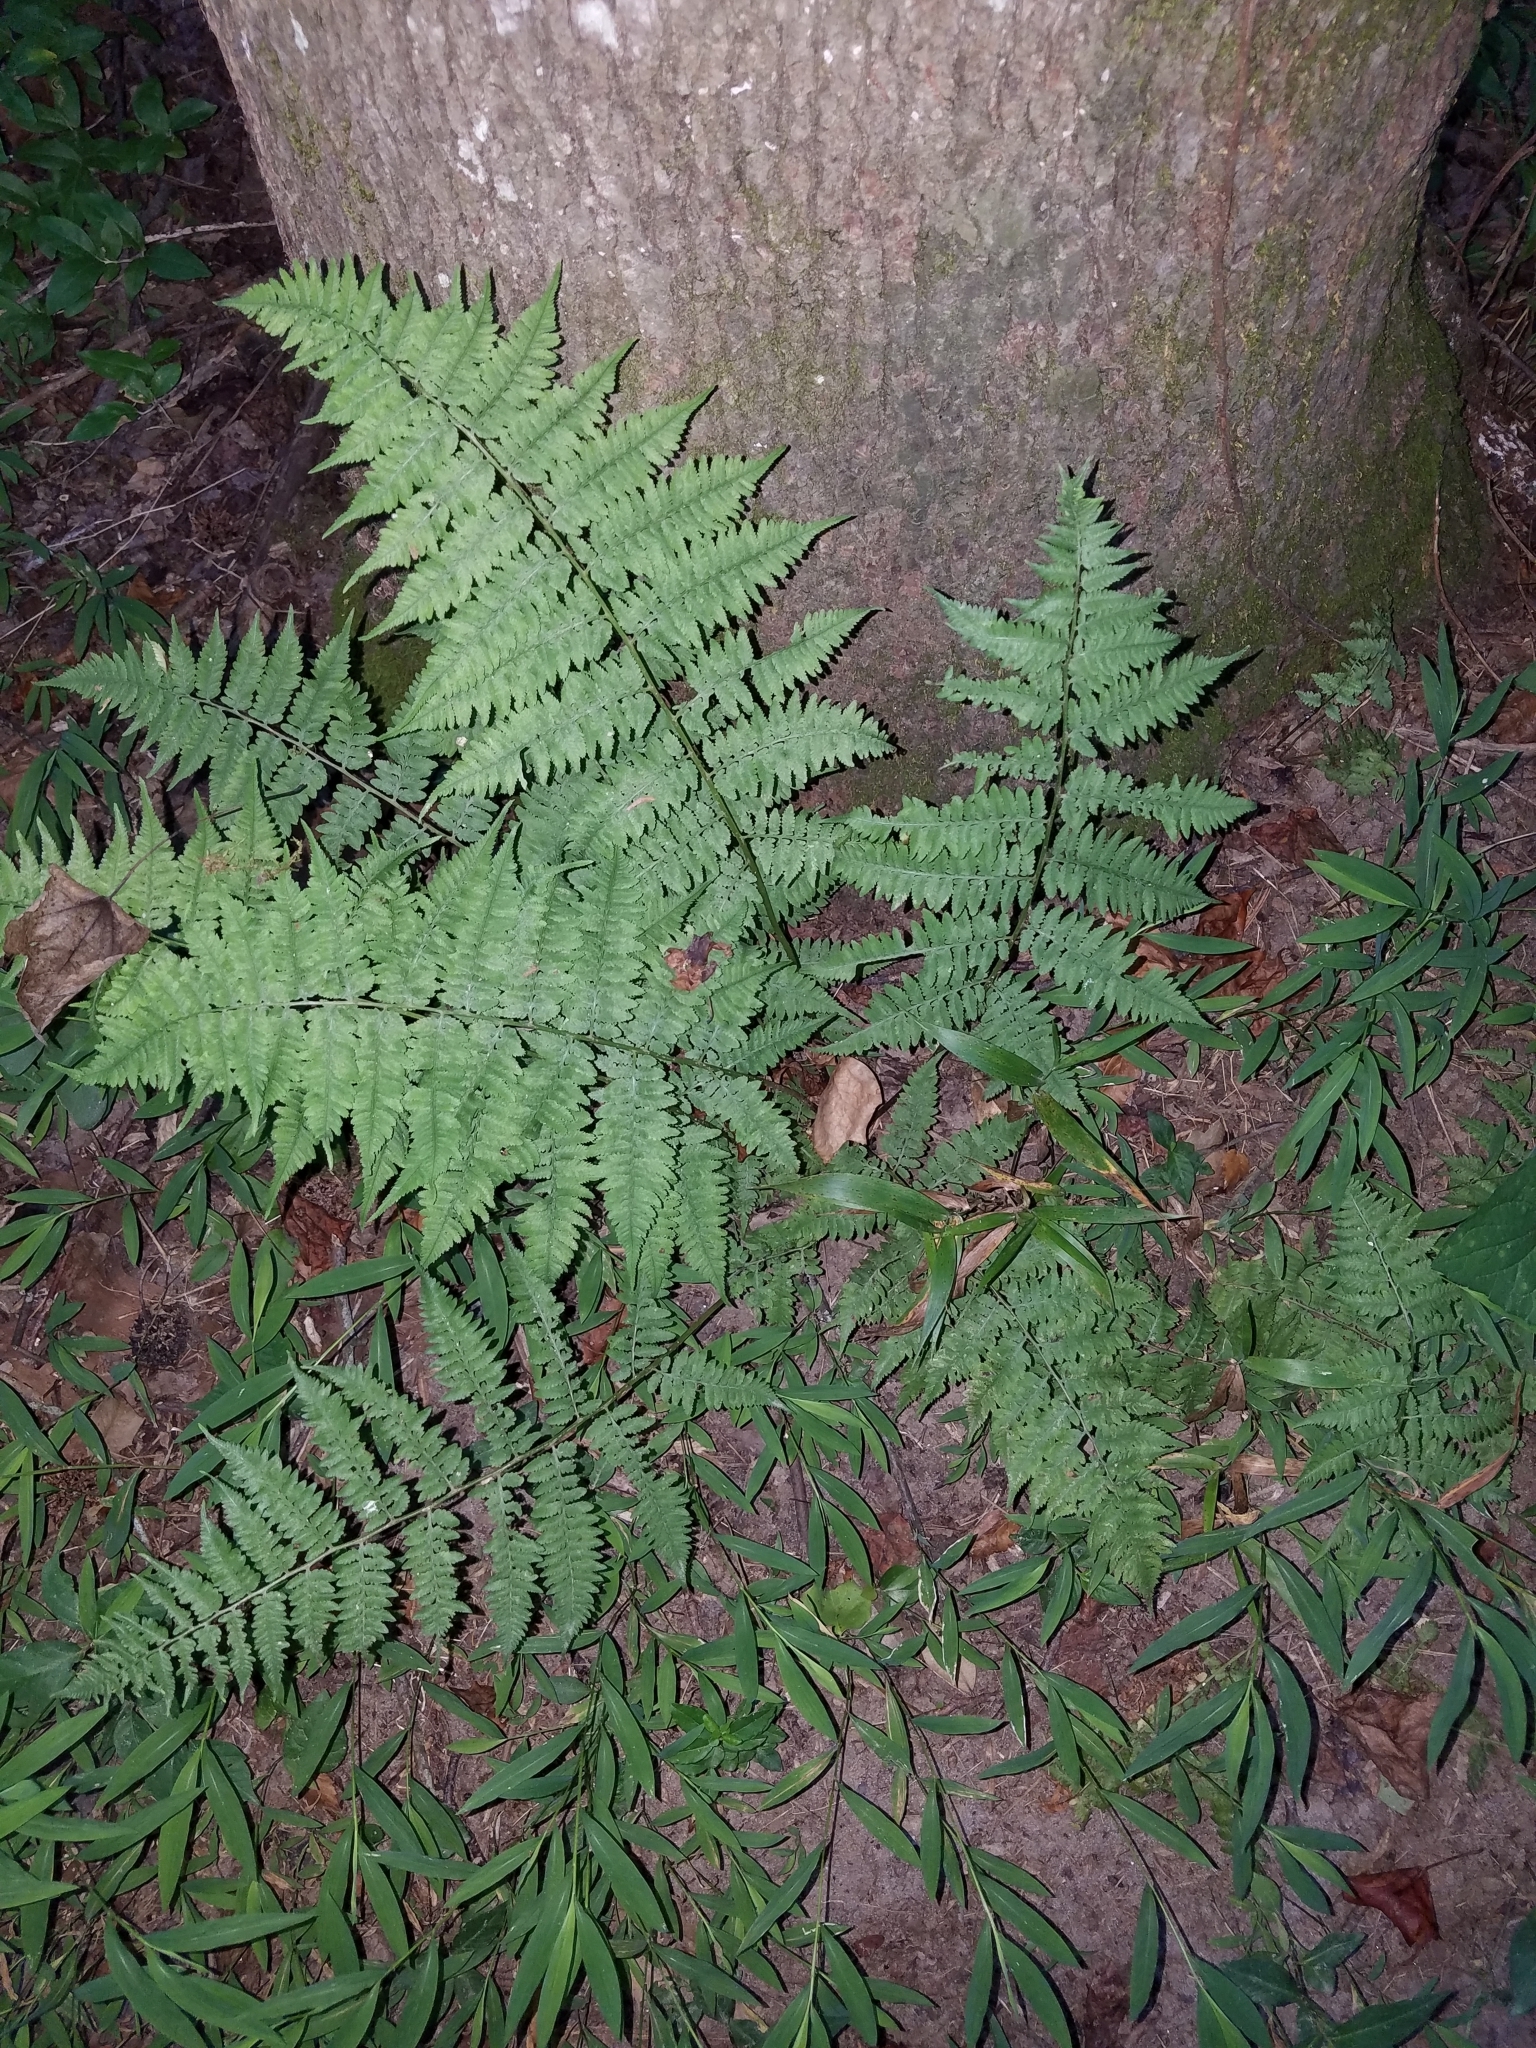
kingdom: Plantae
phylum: Tracheophyta
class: Polypodiopsida
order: Polypodiales
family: Athyriaceae
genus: Athyrium
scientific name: Athyrium asplenioides
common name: Southern lady fern
